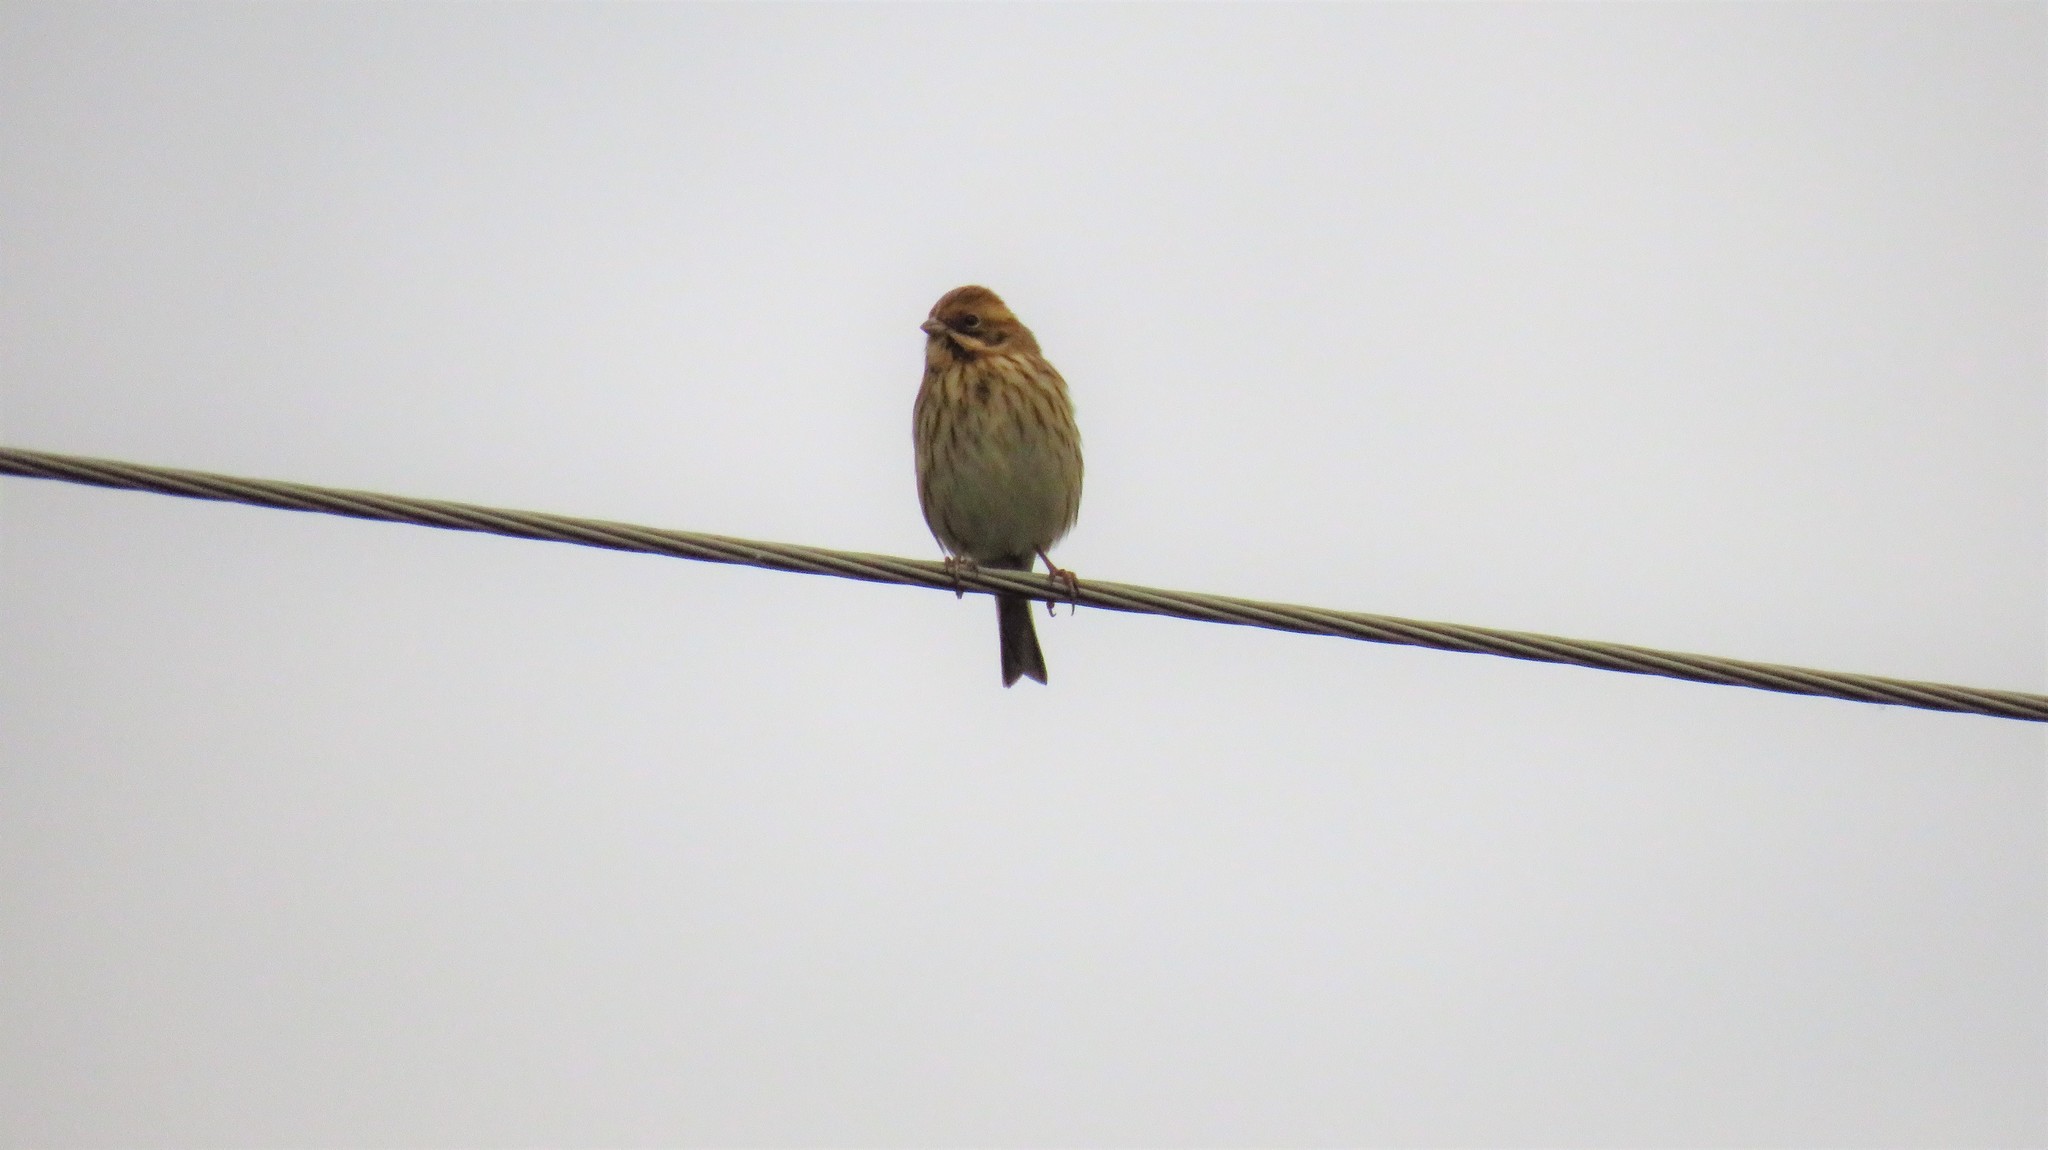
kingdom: Animalia
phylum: Chordata
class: Aves
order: Passeriformes
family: Emberizidae
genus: Emberiza
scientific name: Emberiza schoeniclus
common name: Reed bunting
